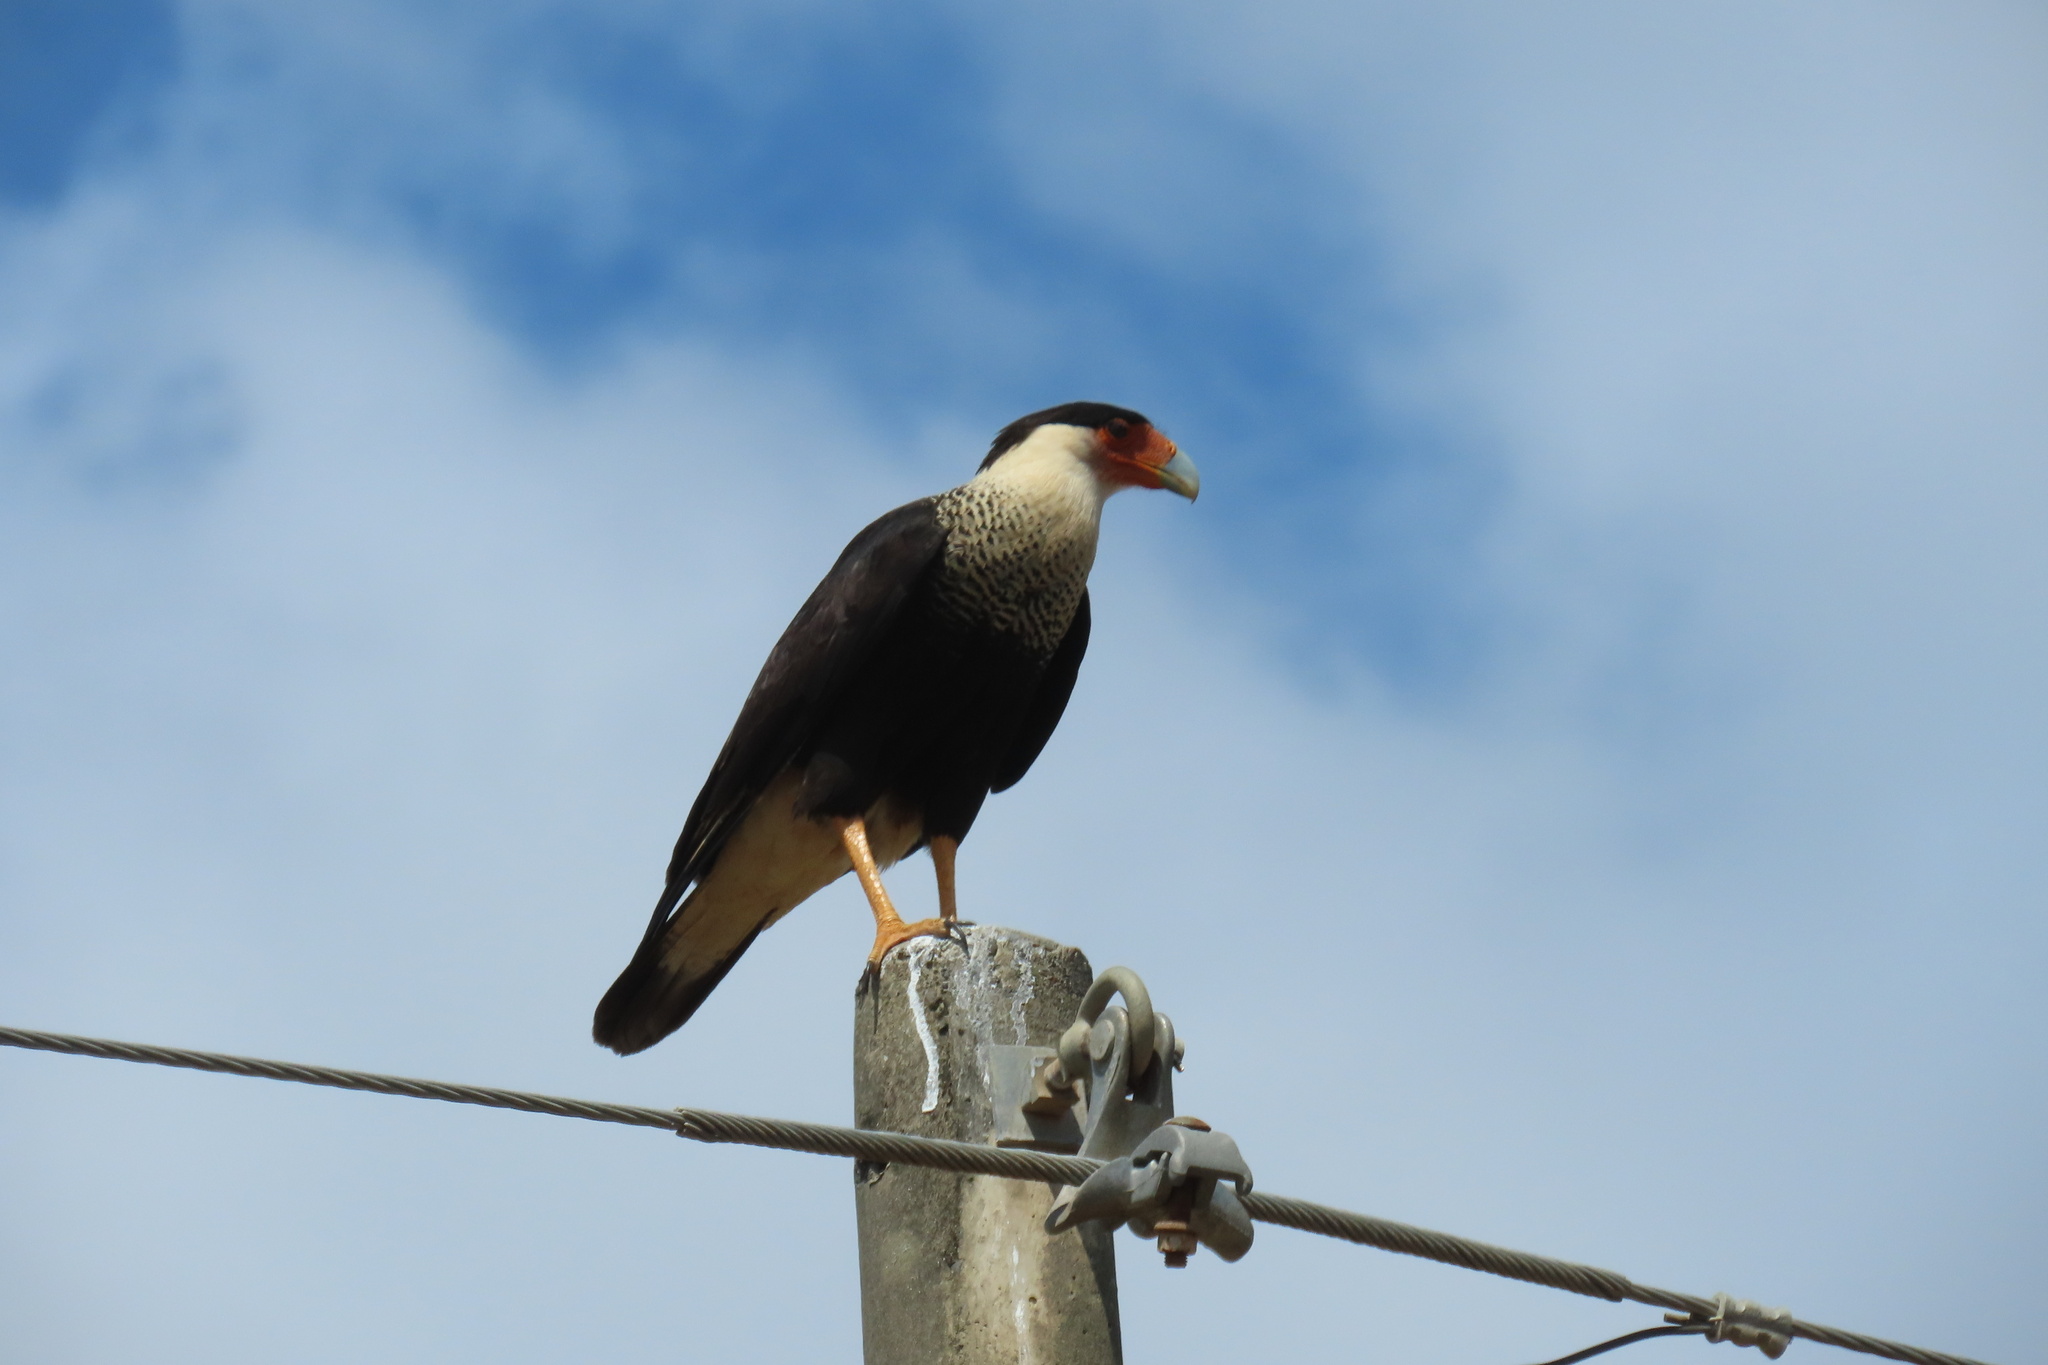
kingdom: Animalia
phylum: Chordata
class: Aves
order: Falconiformes
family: Falconidae
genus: Caracara
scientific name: Caracara plancus
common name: Southern caracara
